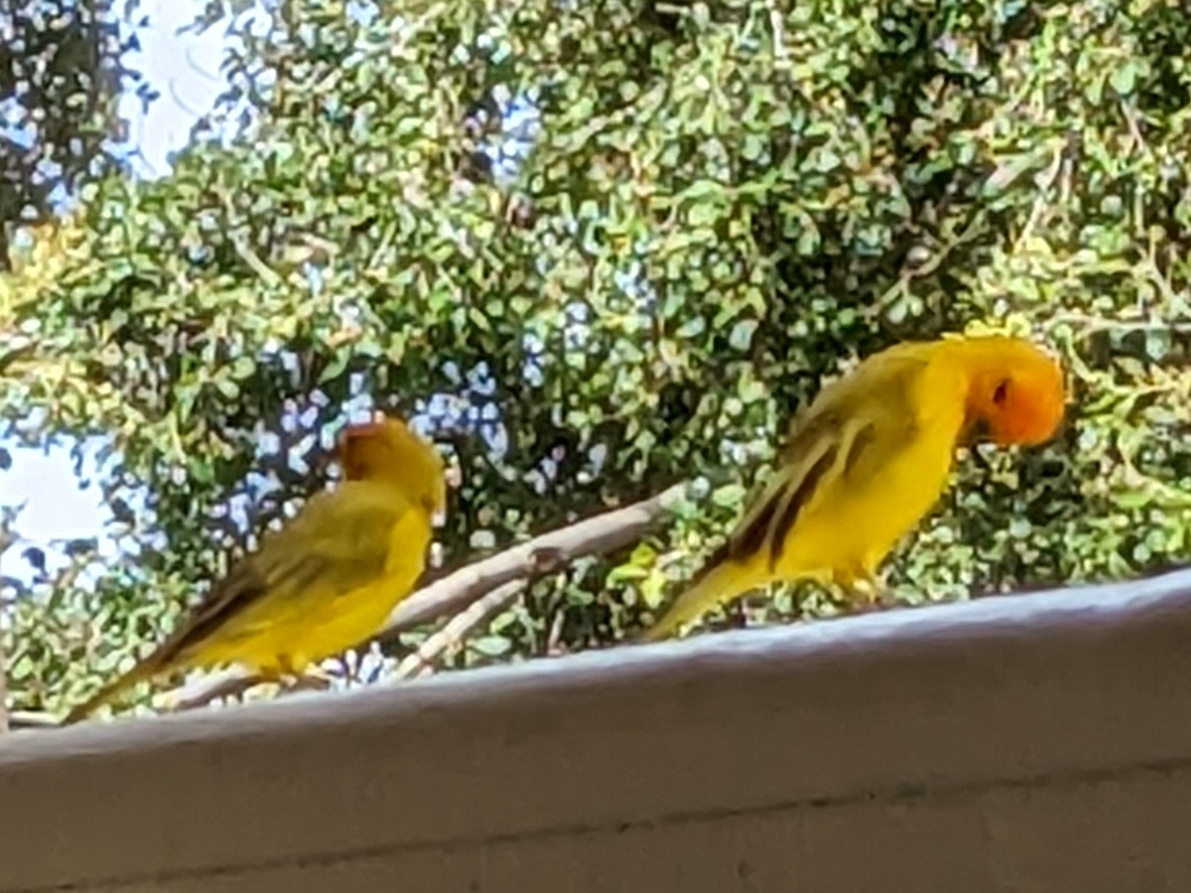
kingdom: Animalia
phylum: Chordata
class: Aves
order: Passeriformes
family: Thraupidae
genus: Sicalis
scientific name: Sicalis flaveola
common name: Saffron finch
